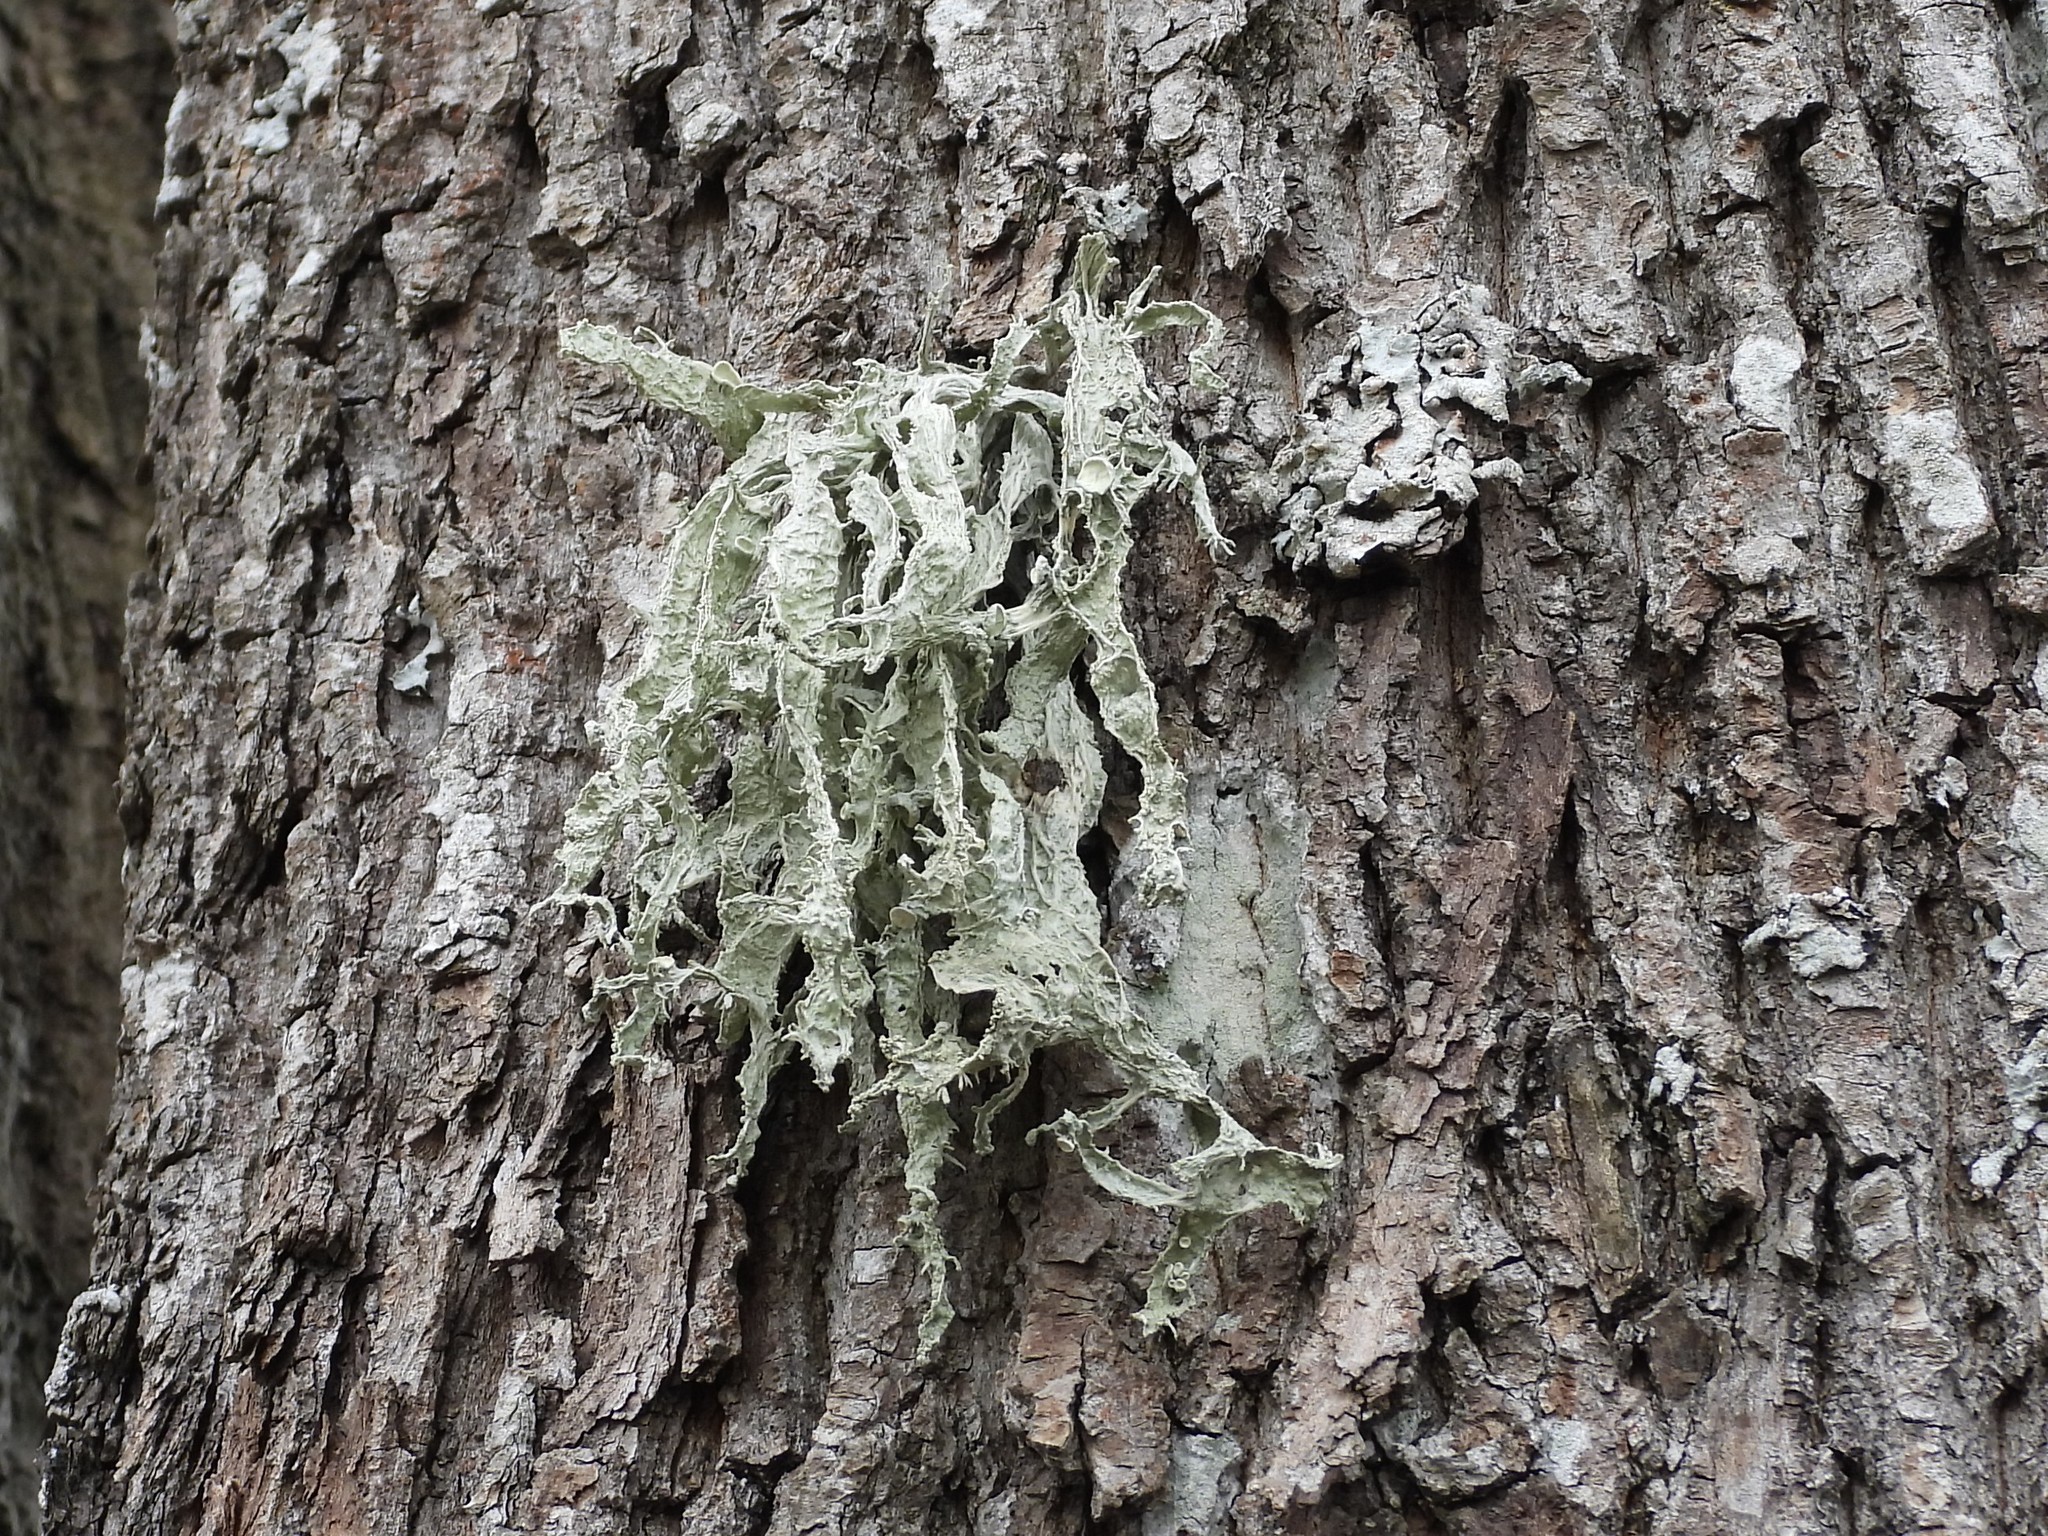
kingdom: Fungi
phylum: Ascomycota
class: Lecanoromycetes
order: Lecanorales
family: Ramalinaceae
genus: Ramalina
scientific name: Ramalina fraxinea
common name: Cartilage lichen
